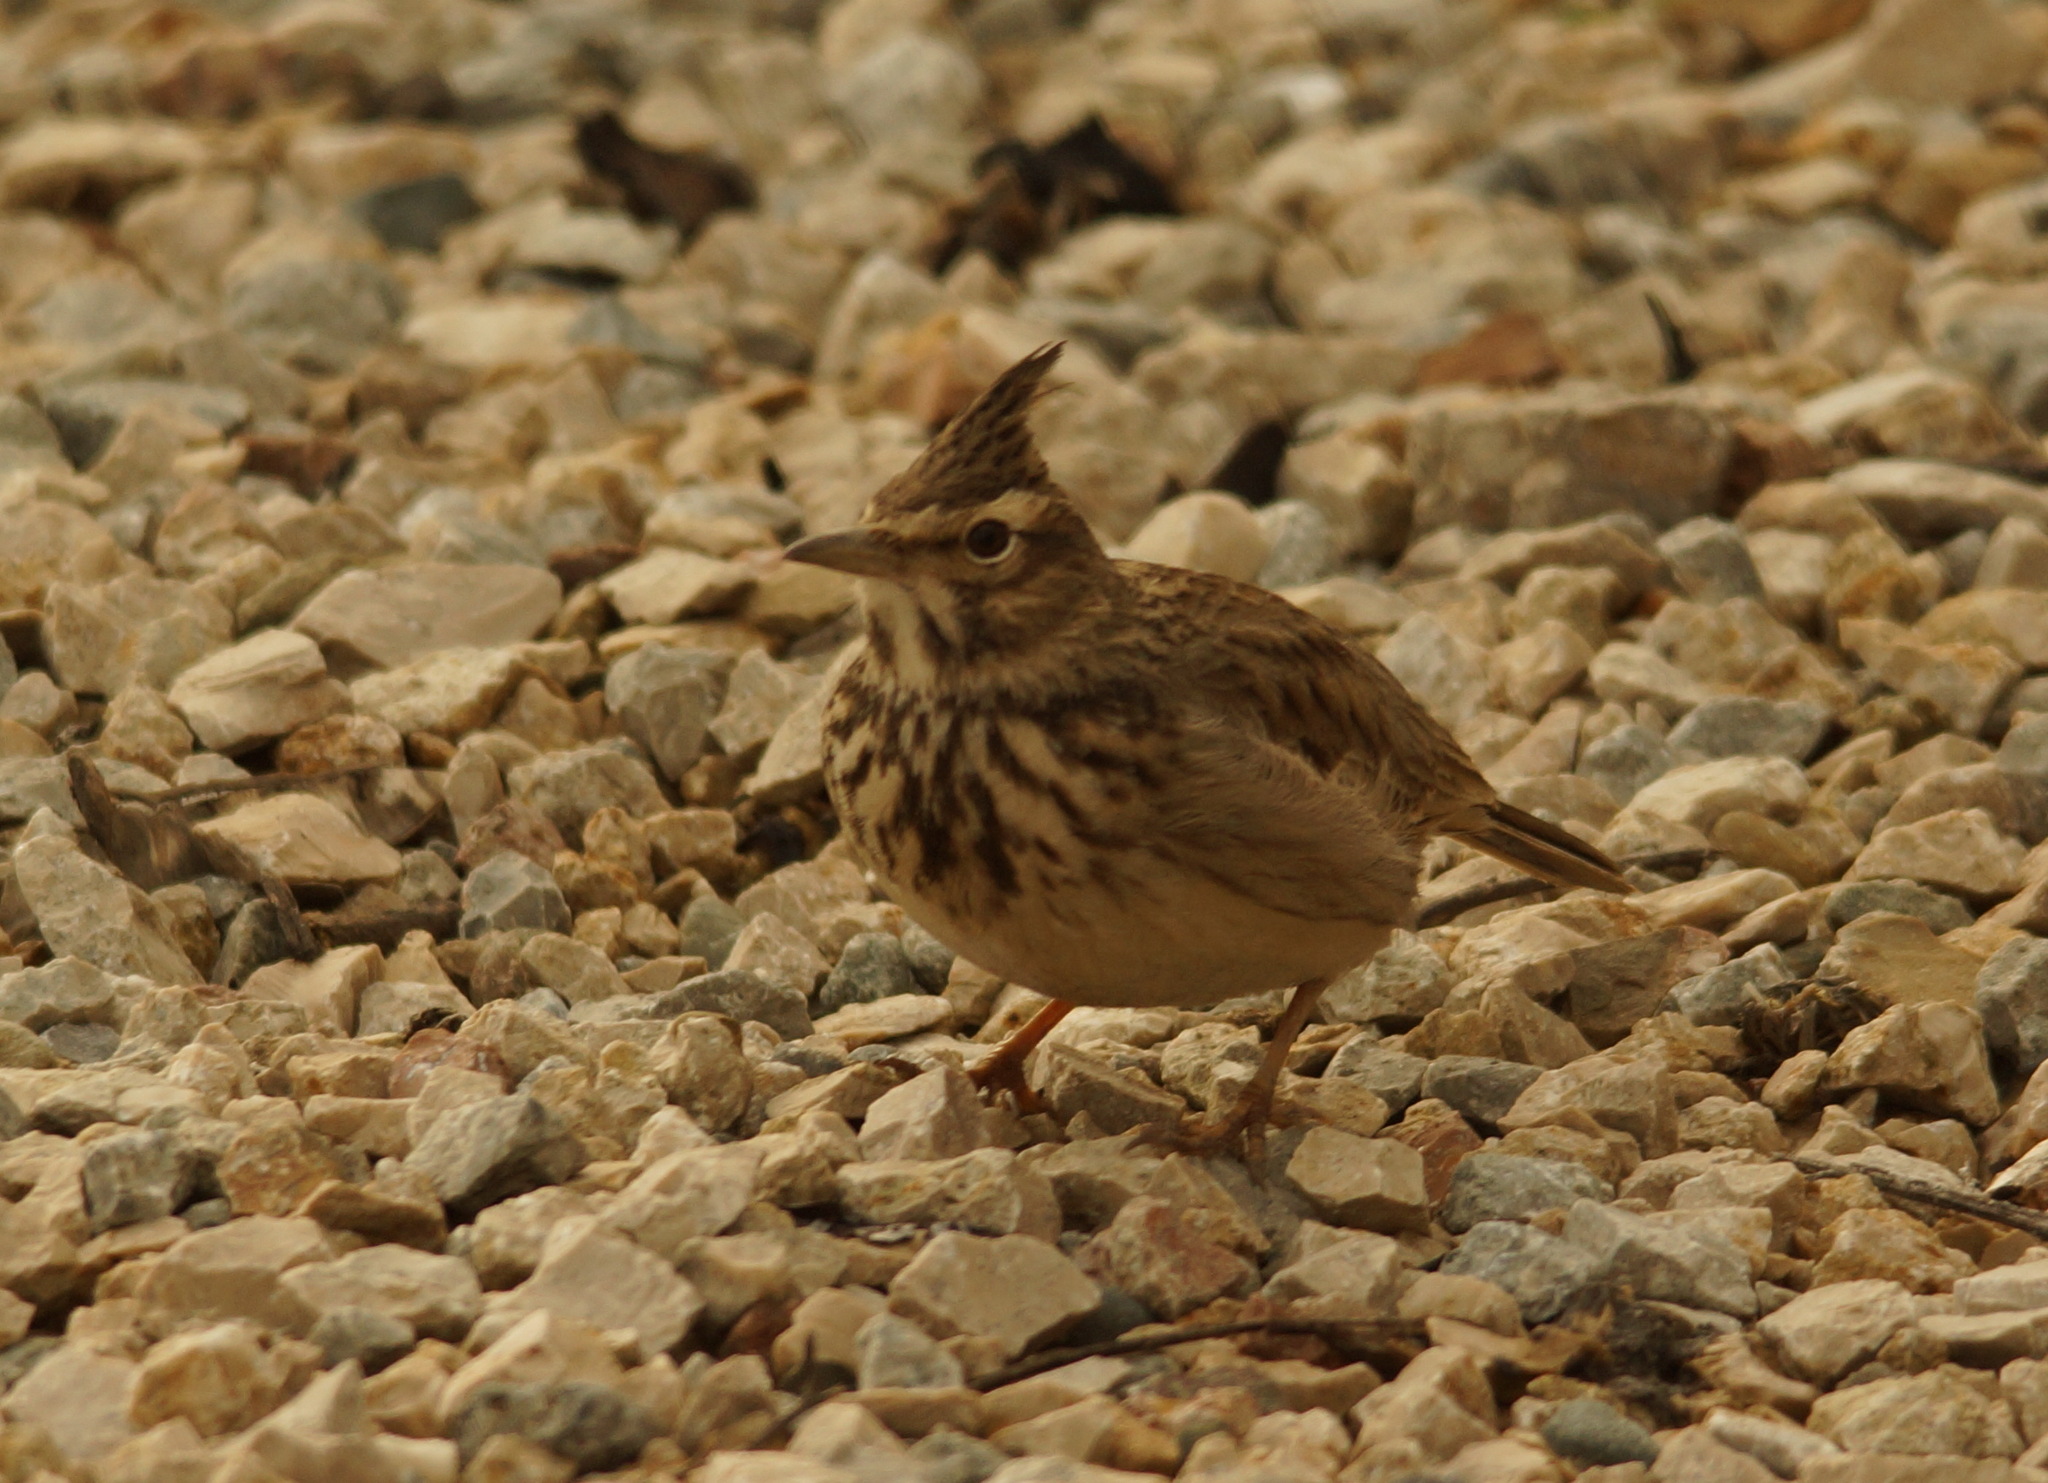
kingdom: Animalia
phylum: Chordata
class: Aves
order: Passeriformes
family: Alaudidae
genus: Galerida
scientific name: Galerida cristata
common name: Crested lark
